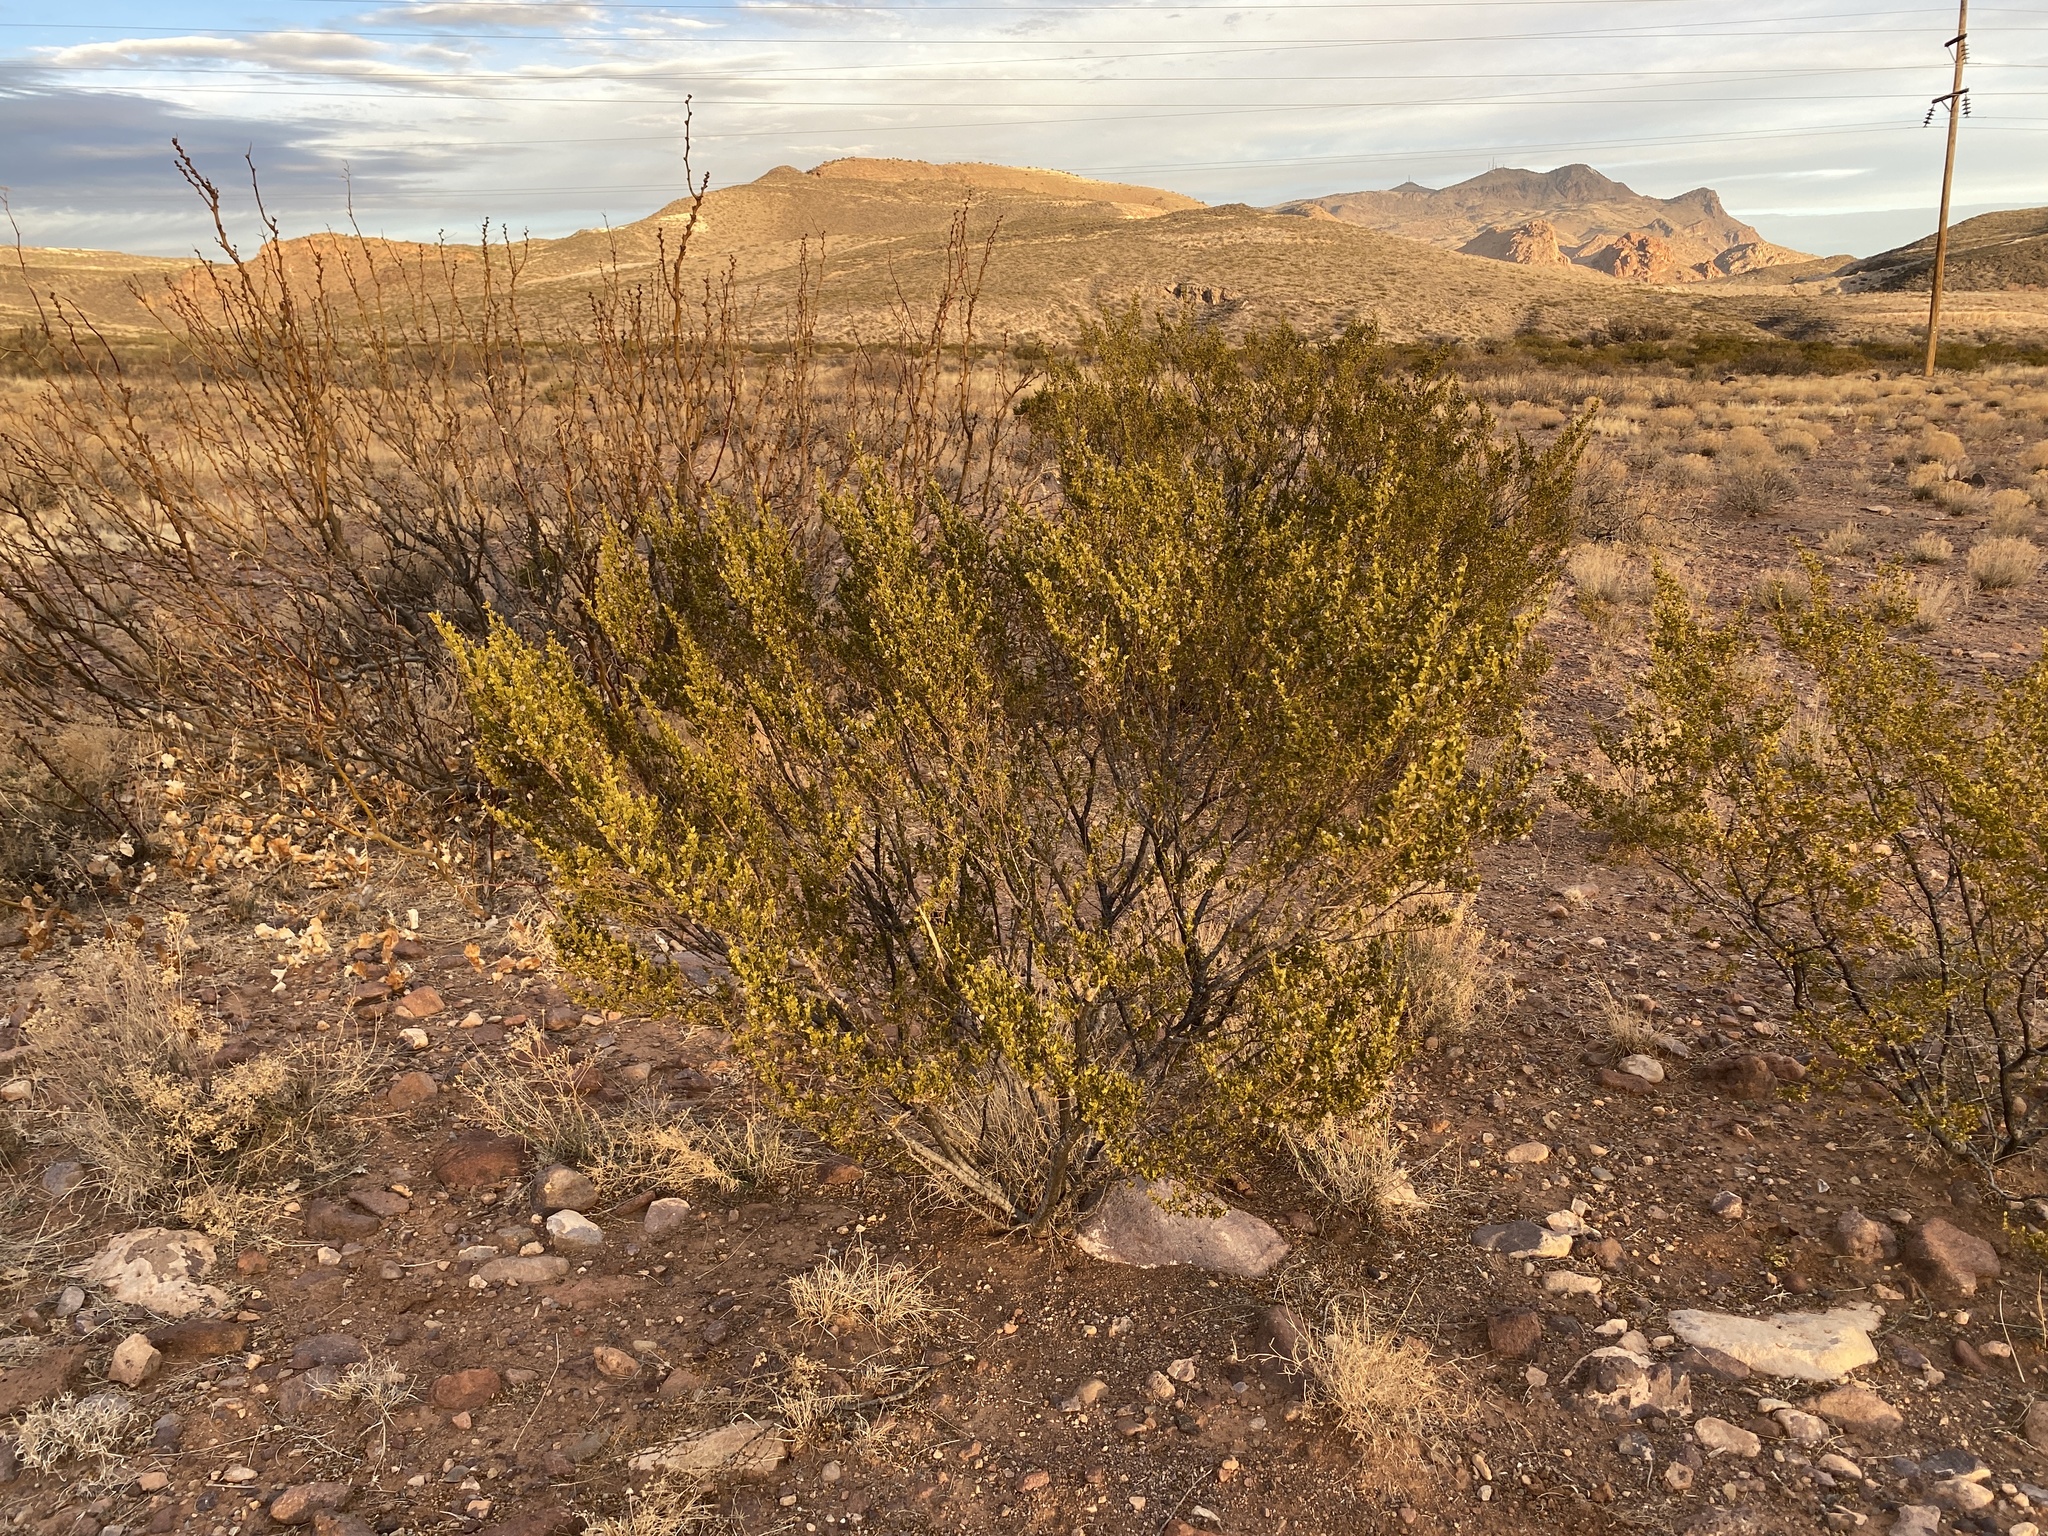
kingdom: Plantae
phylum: Tracheophyta
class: Magnoliopsida
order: Zygophyllales
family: Zygophyllaceae
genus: Larrea
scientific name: Larrea tridentata
